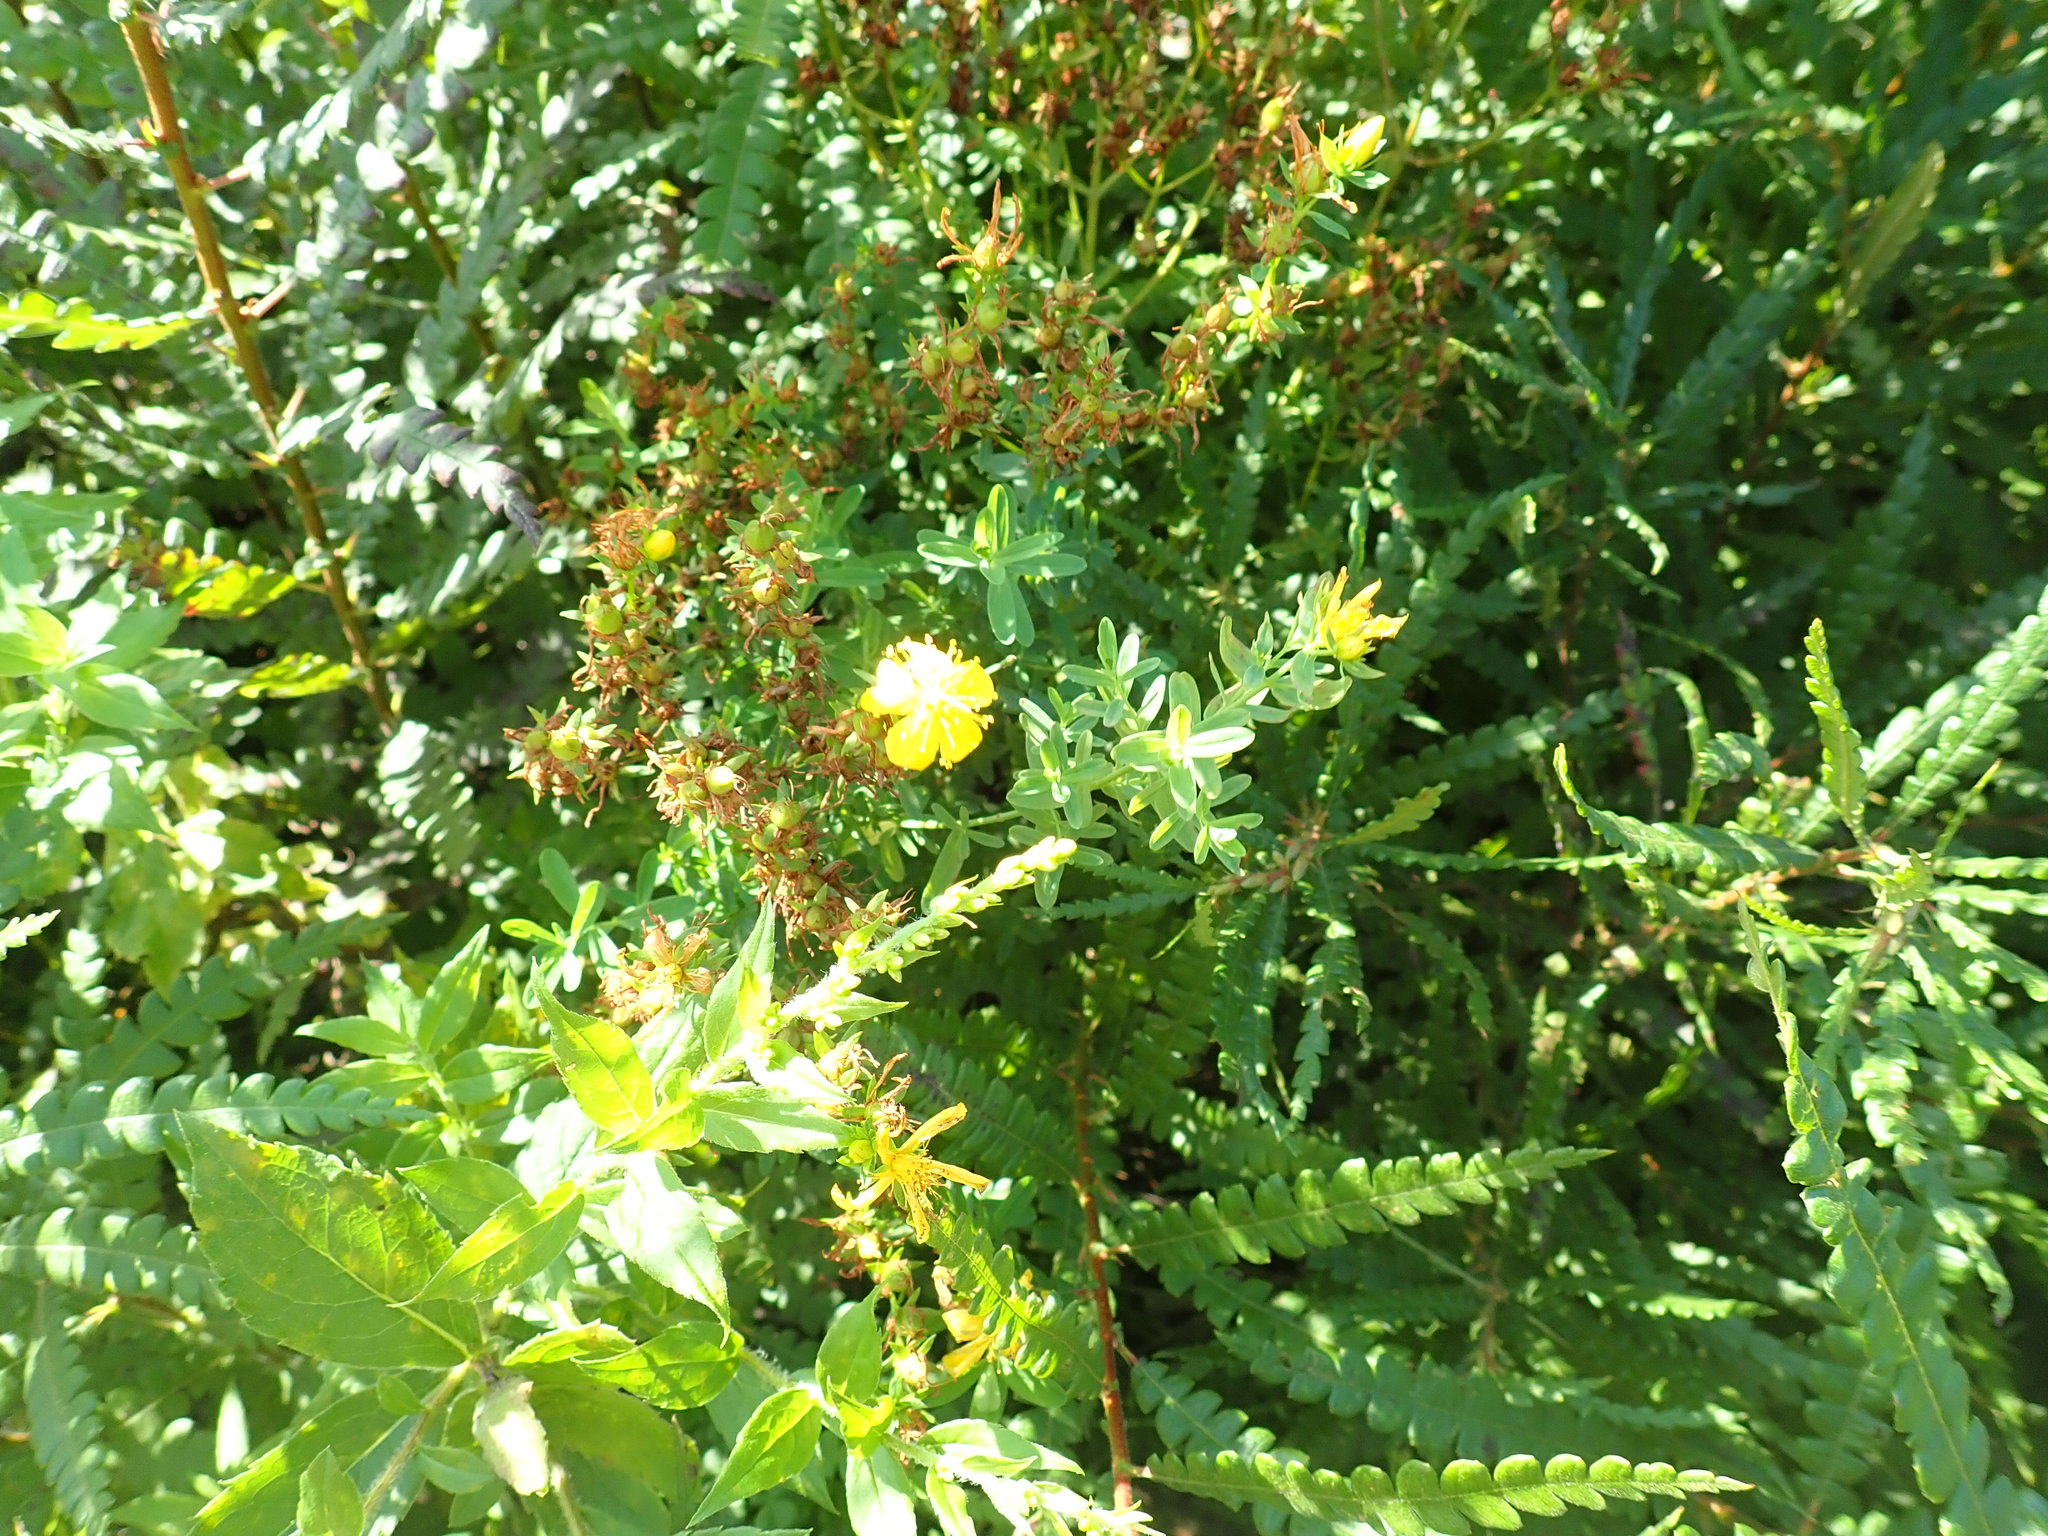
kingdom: Plantae
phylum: Tracheophyta
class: Magnoliopsida
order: Malpighiales
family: Hypericaceae
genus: Hypericum
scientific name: Hypericum perforatum
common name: Common st. johnswort
